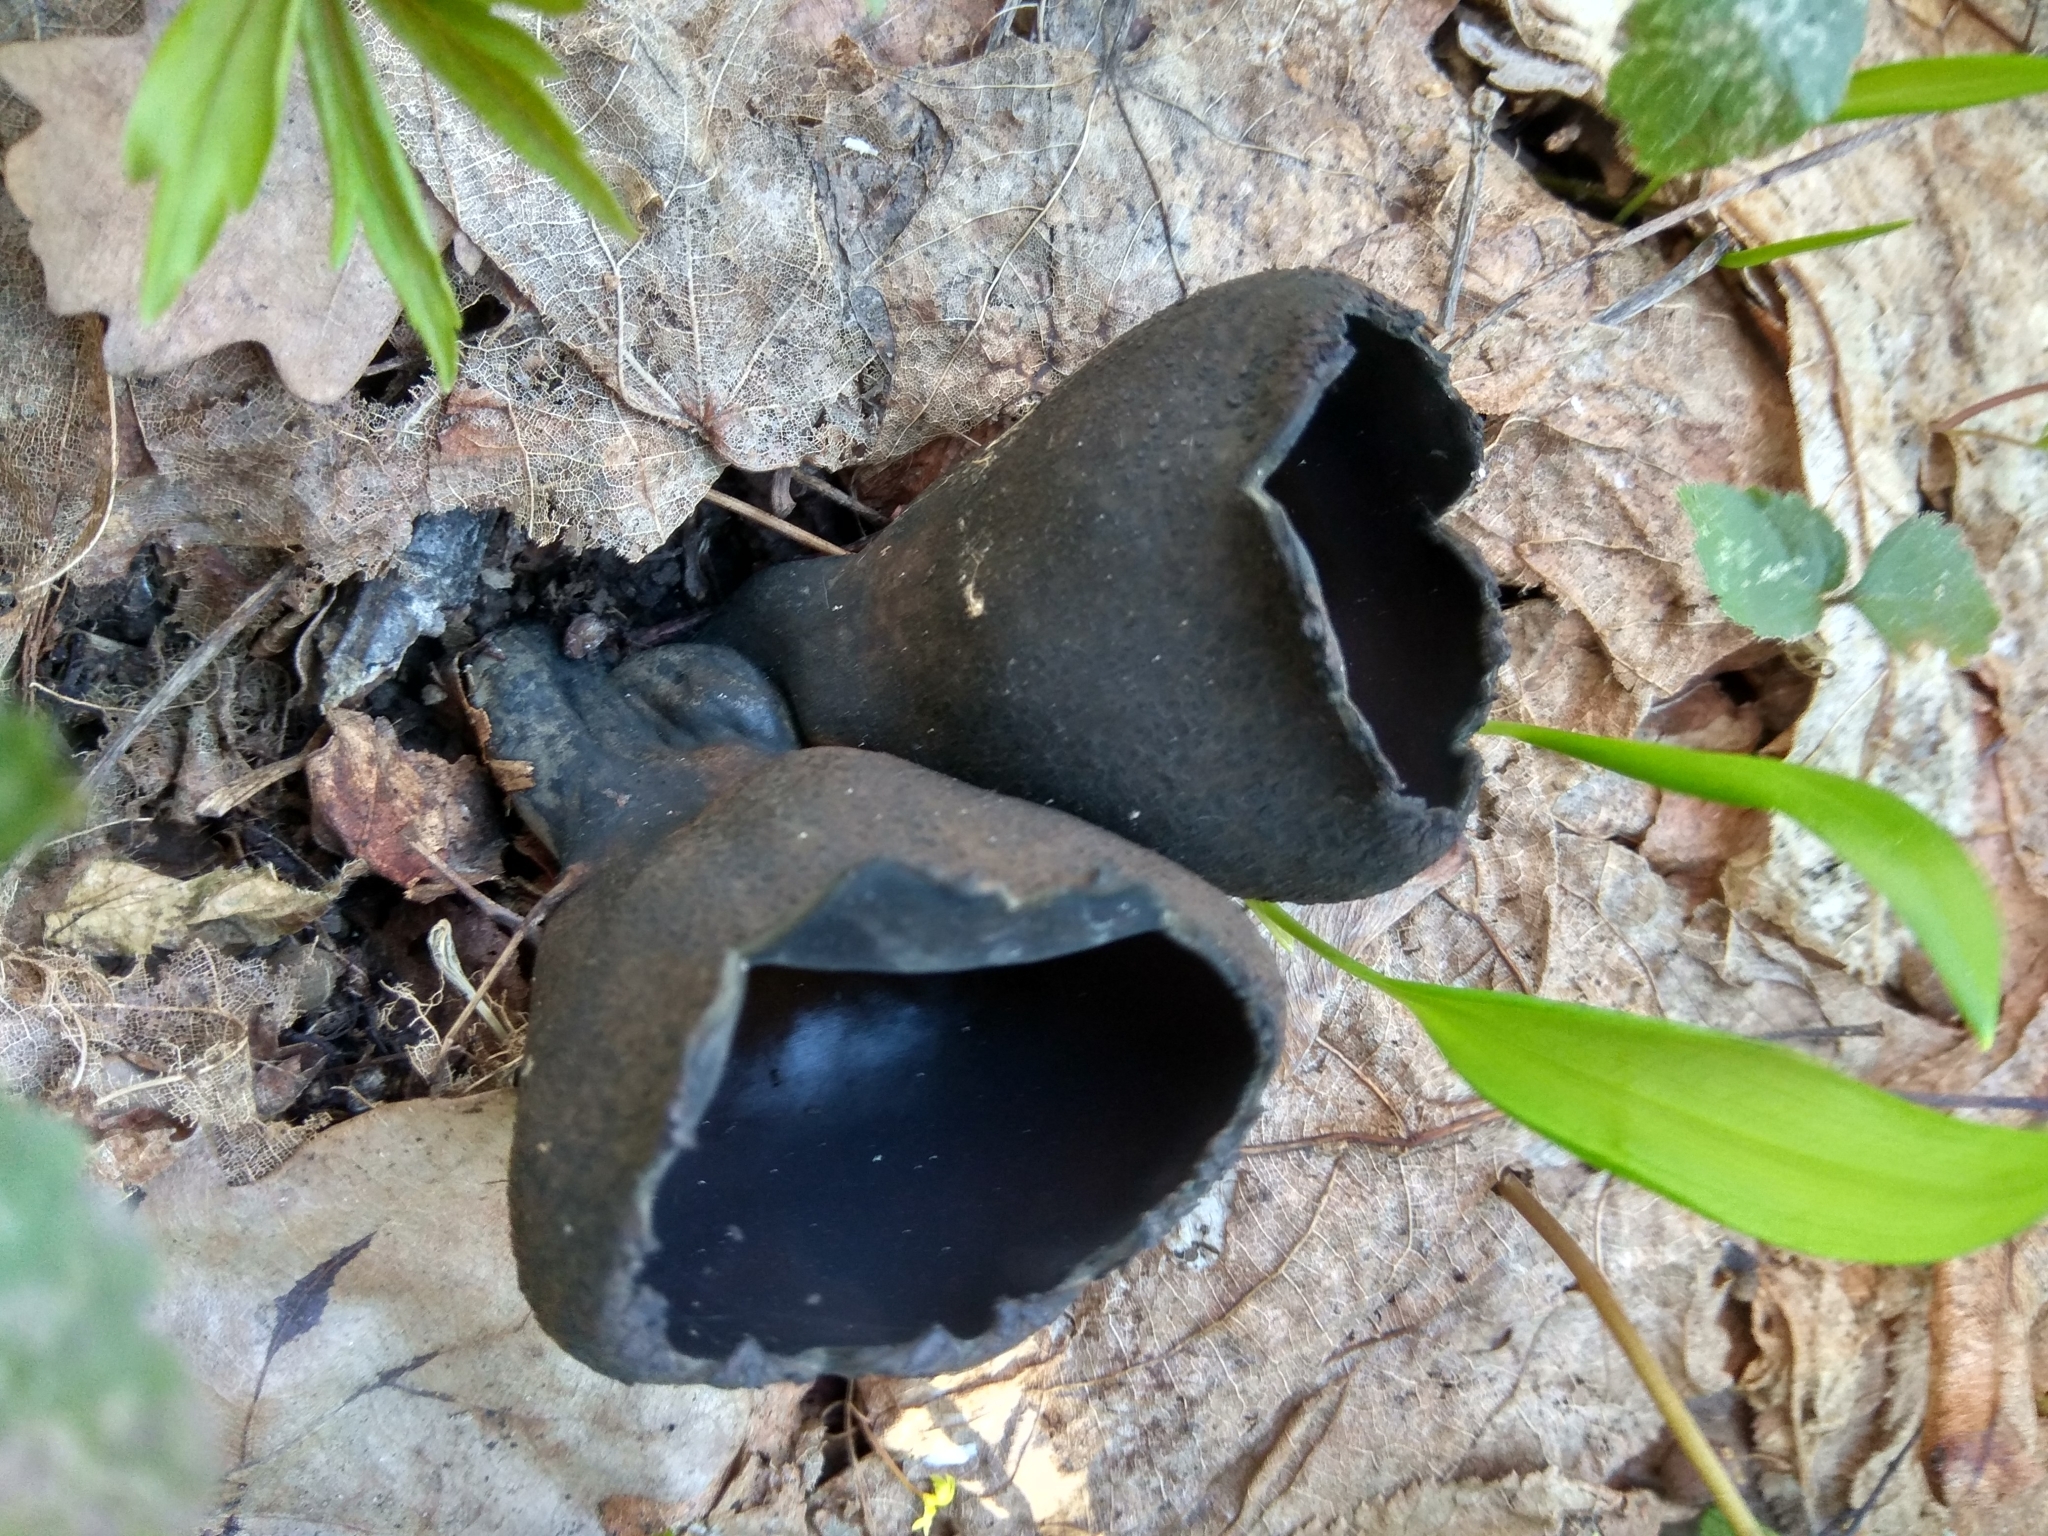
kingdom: Fungi
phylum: Ascomycota
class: Pezizomycetes
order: Pezizales
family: Sarcosomataceae
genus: Urnula
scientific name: Urnula craterium
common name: Devil's urn
